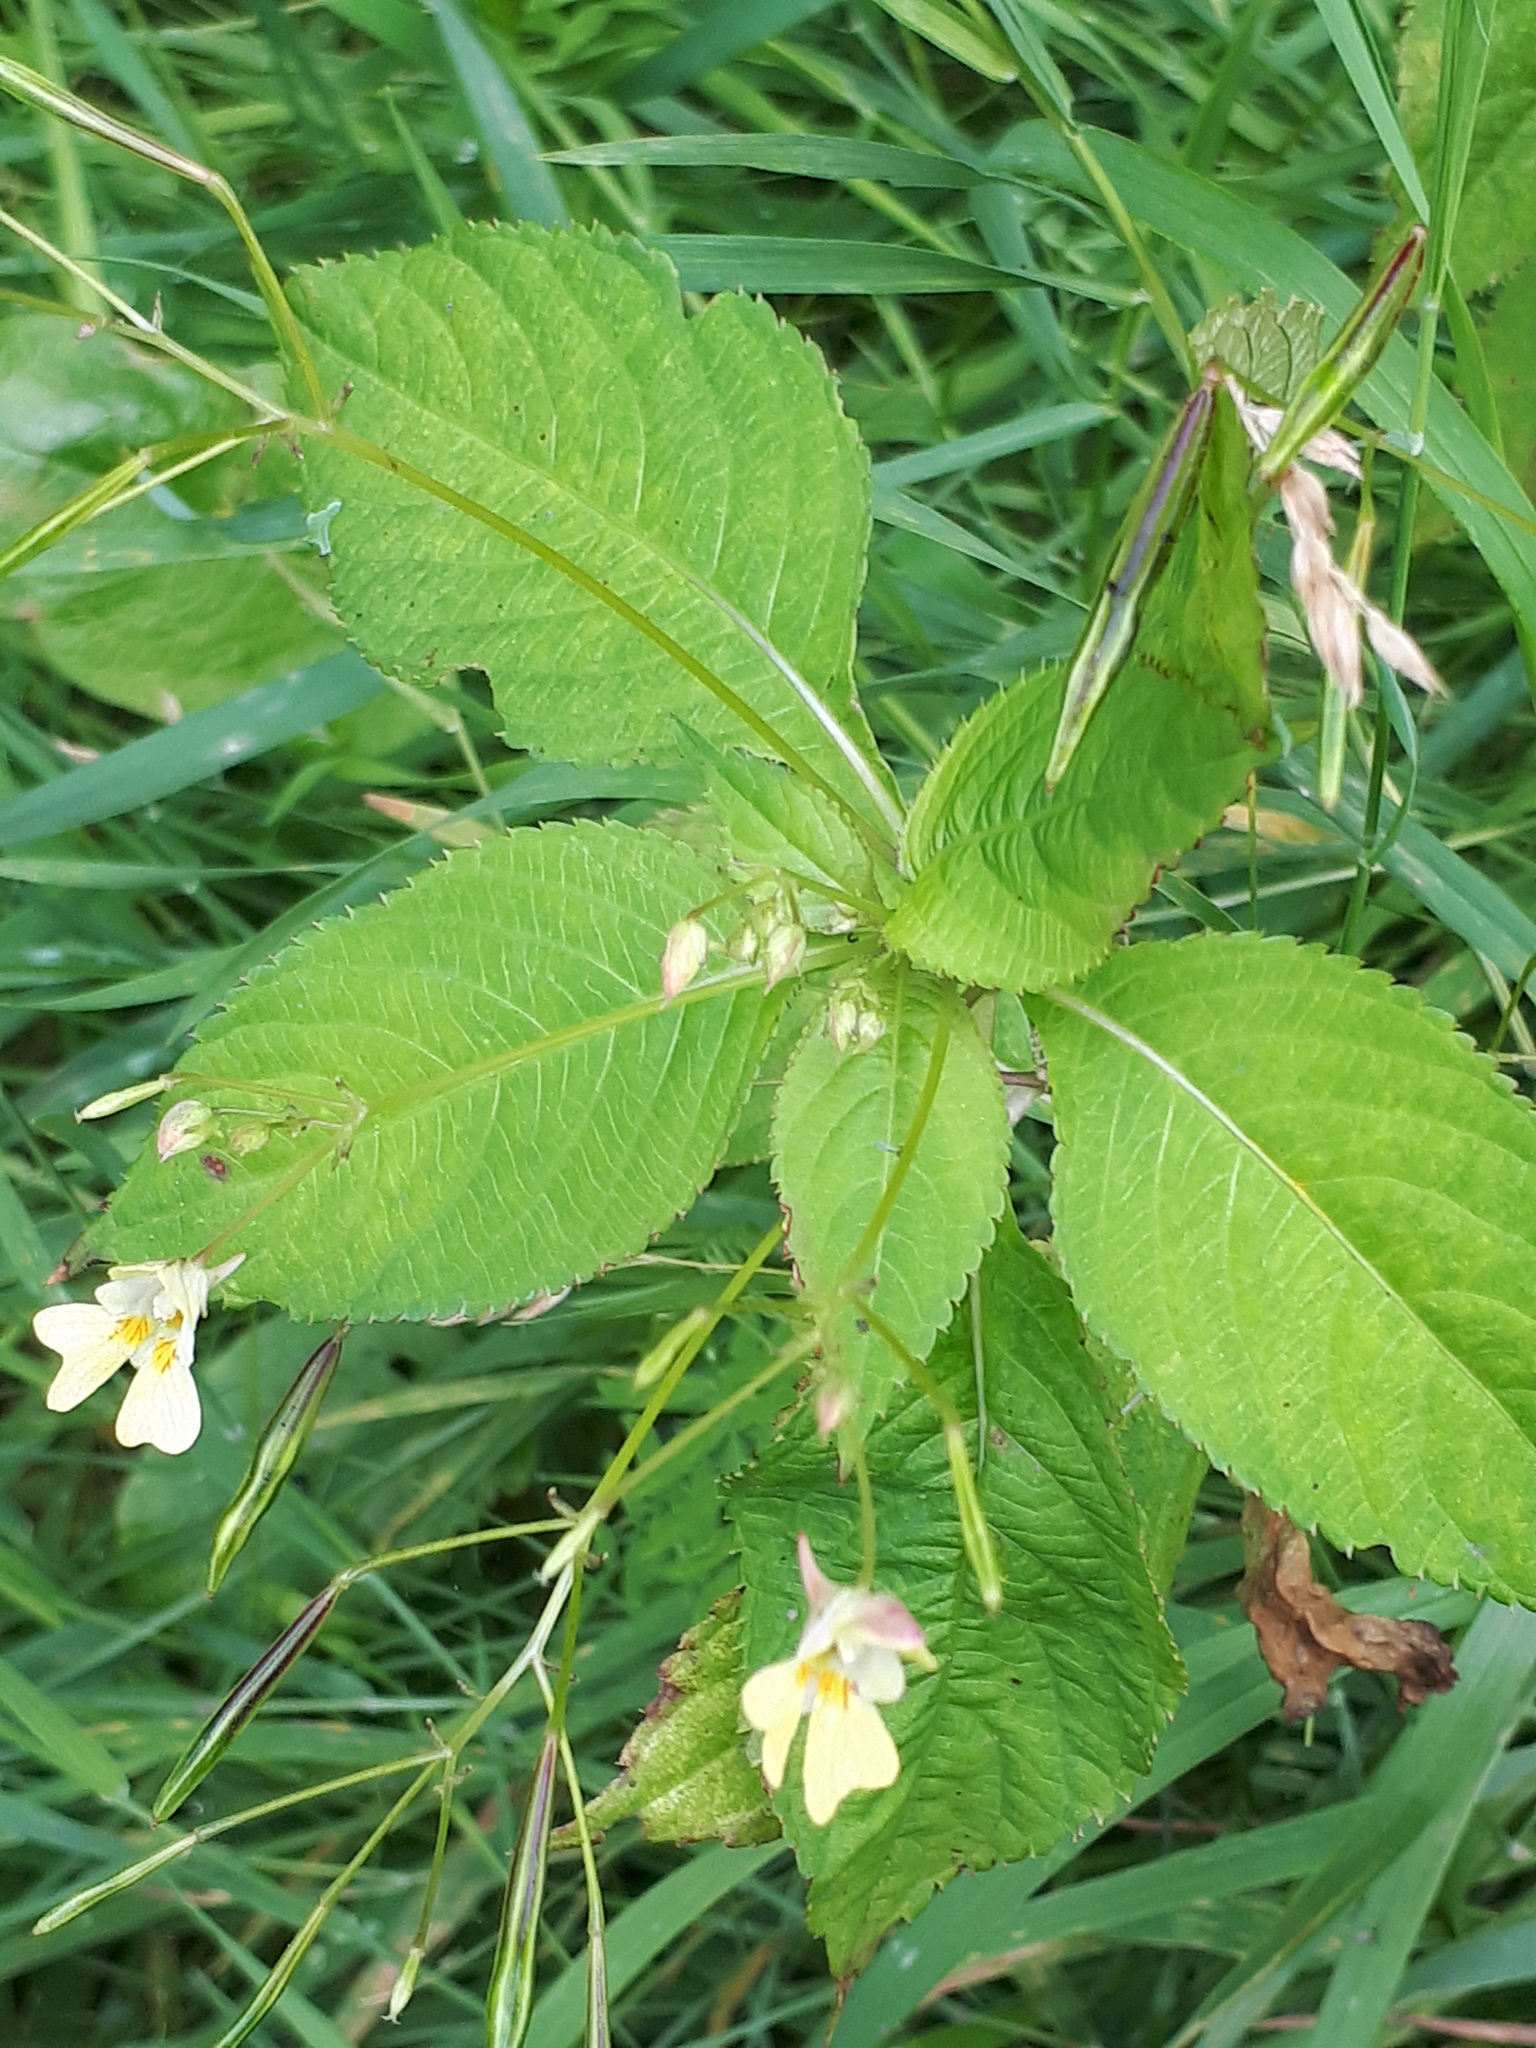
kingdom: Plantae
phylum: Tracheophyta
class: Magnoliopsida
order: Ericales
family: Balsaminaceae
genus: Impatiens
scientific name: Impatiens parviflora
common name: Small balsam
